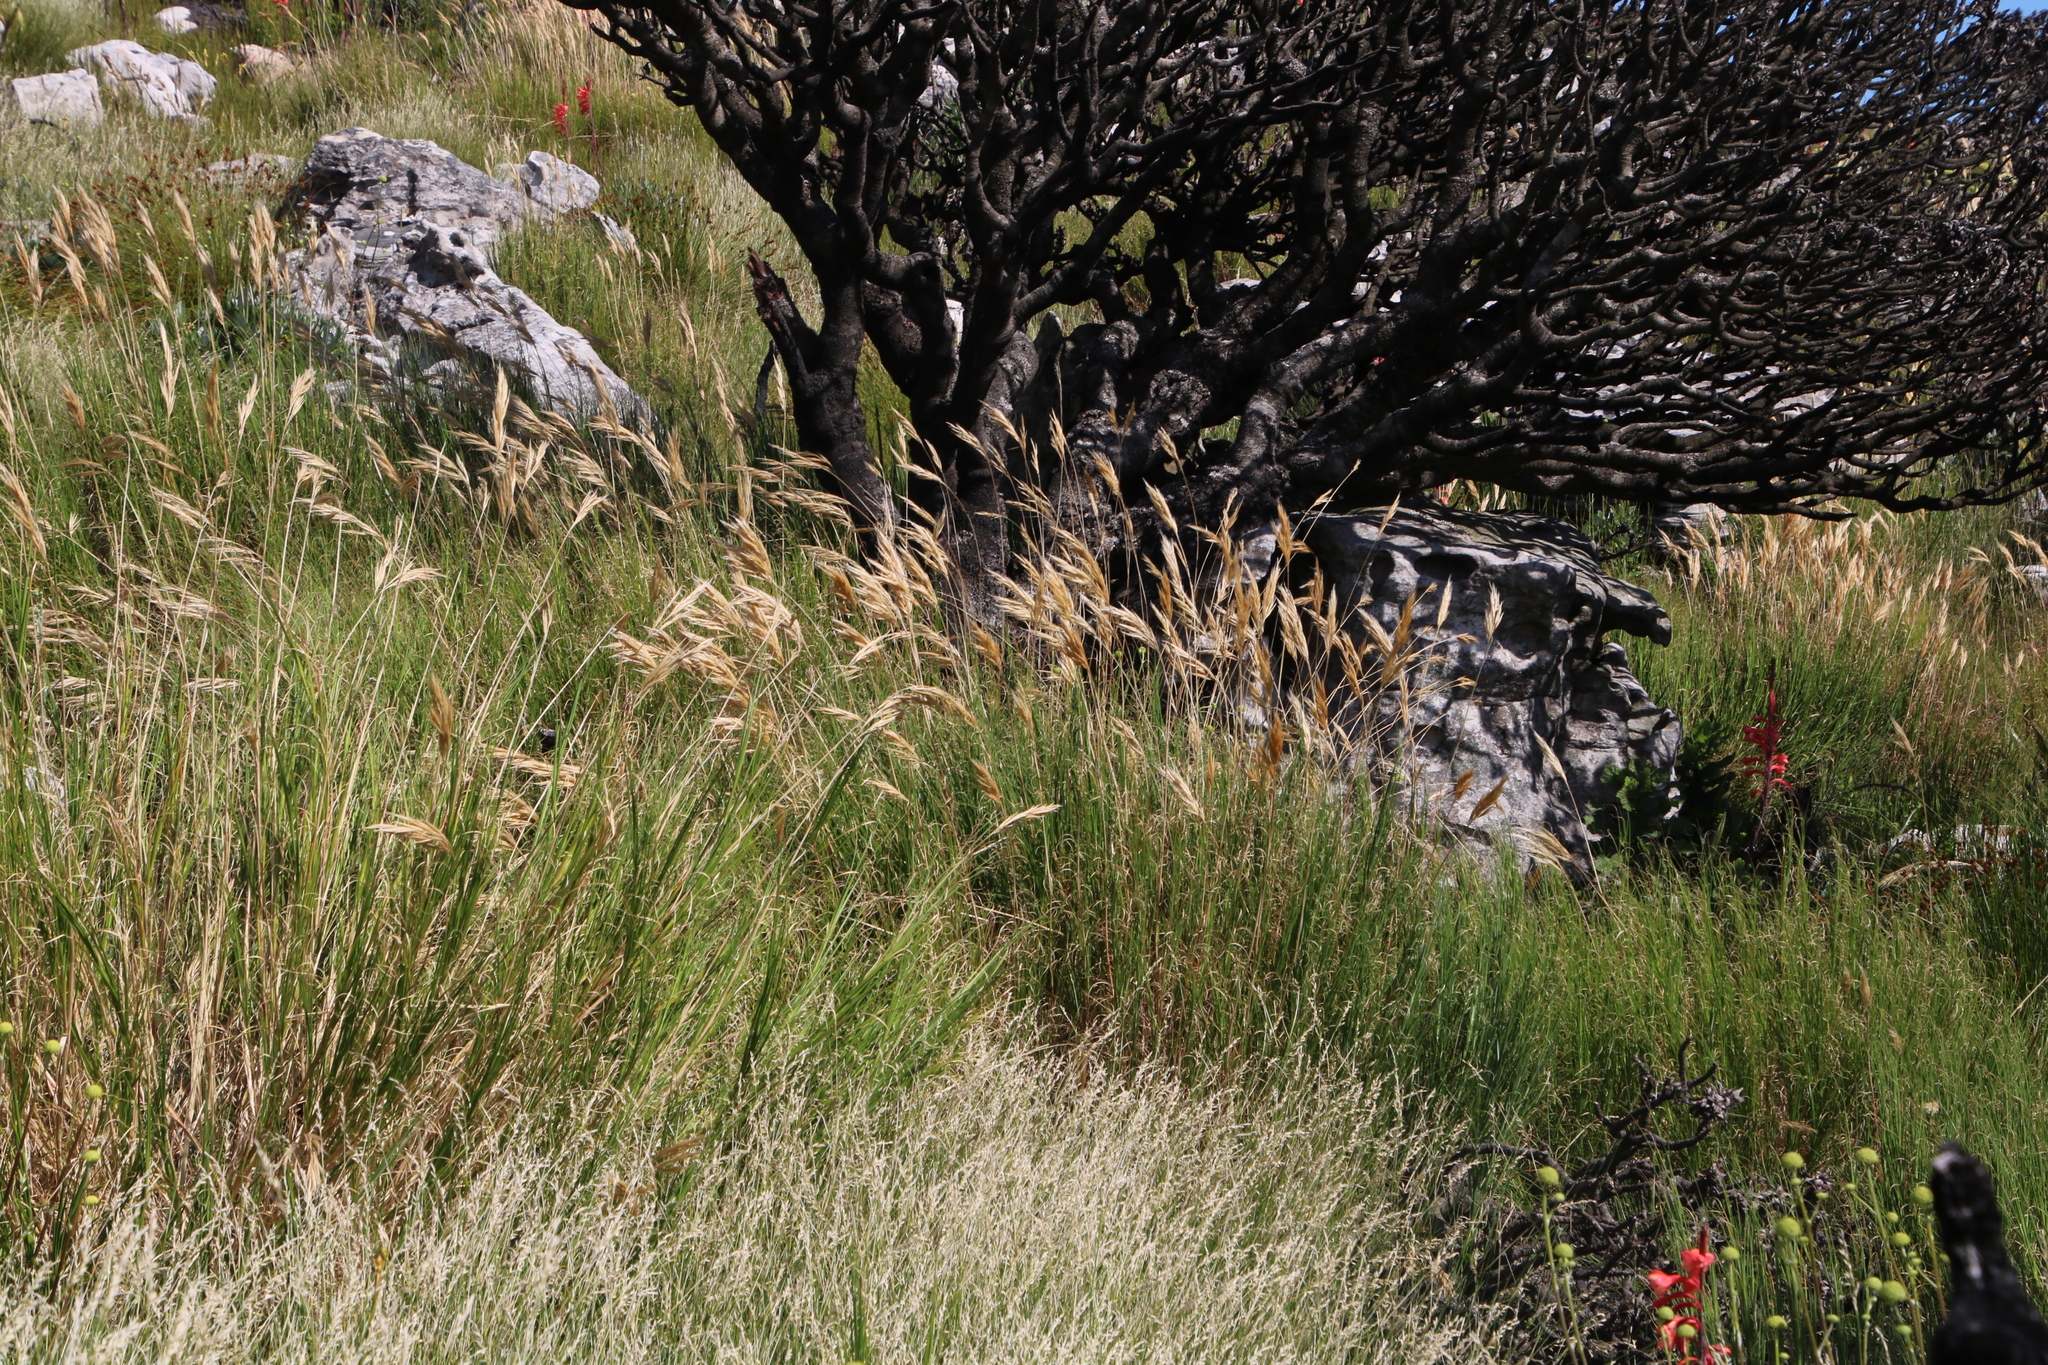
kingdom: Plantae
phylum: Tracheophyta
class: Liliopsida
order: Poales
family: Poaceae
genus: Pseudopentameris
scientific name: Pseudopentameris macrantha
